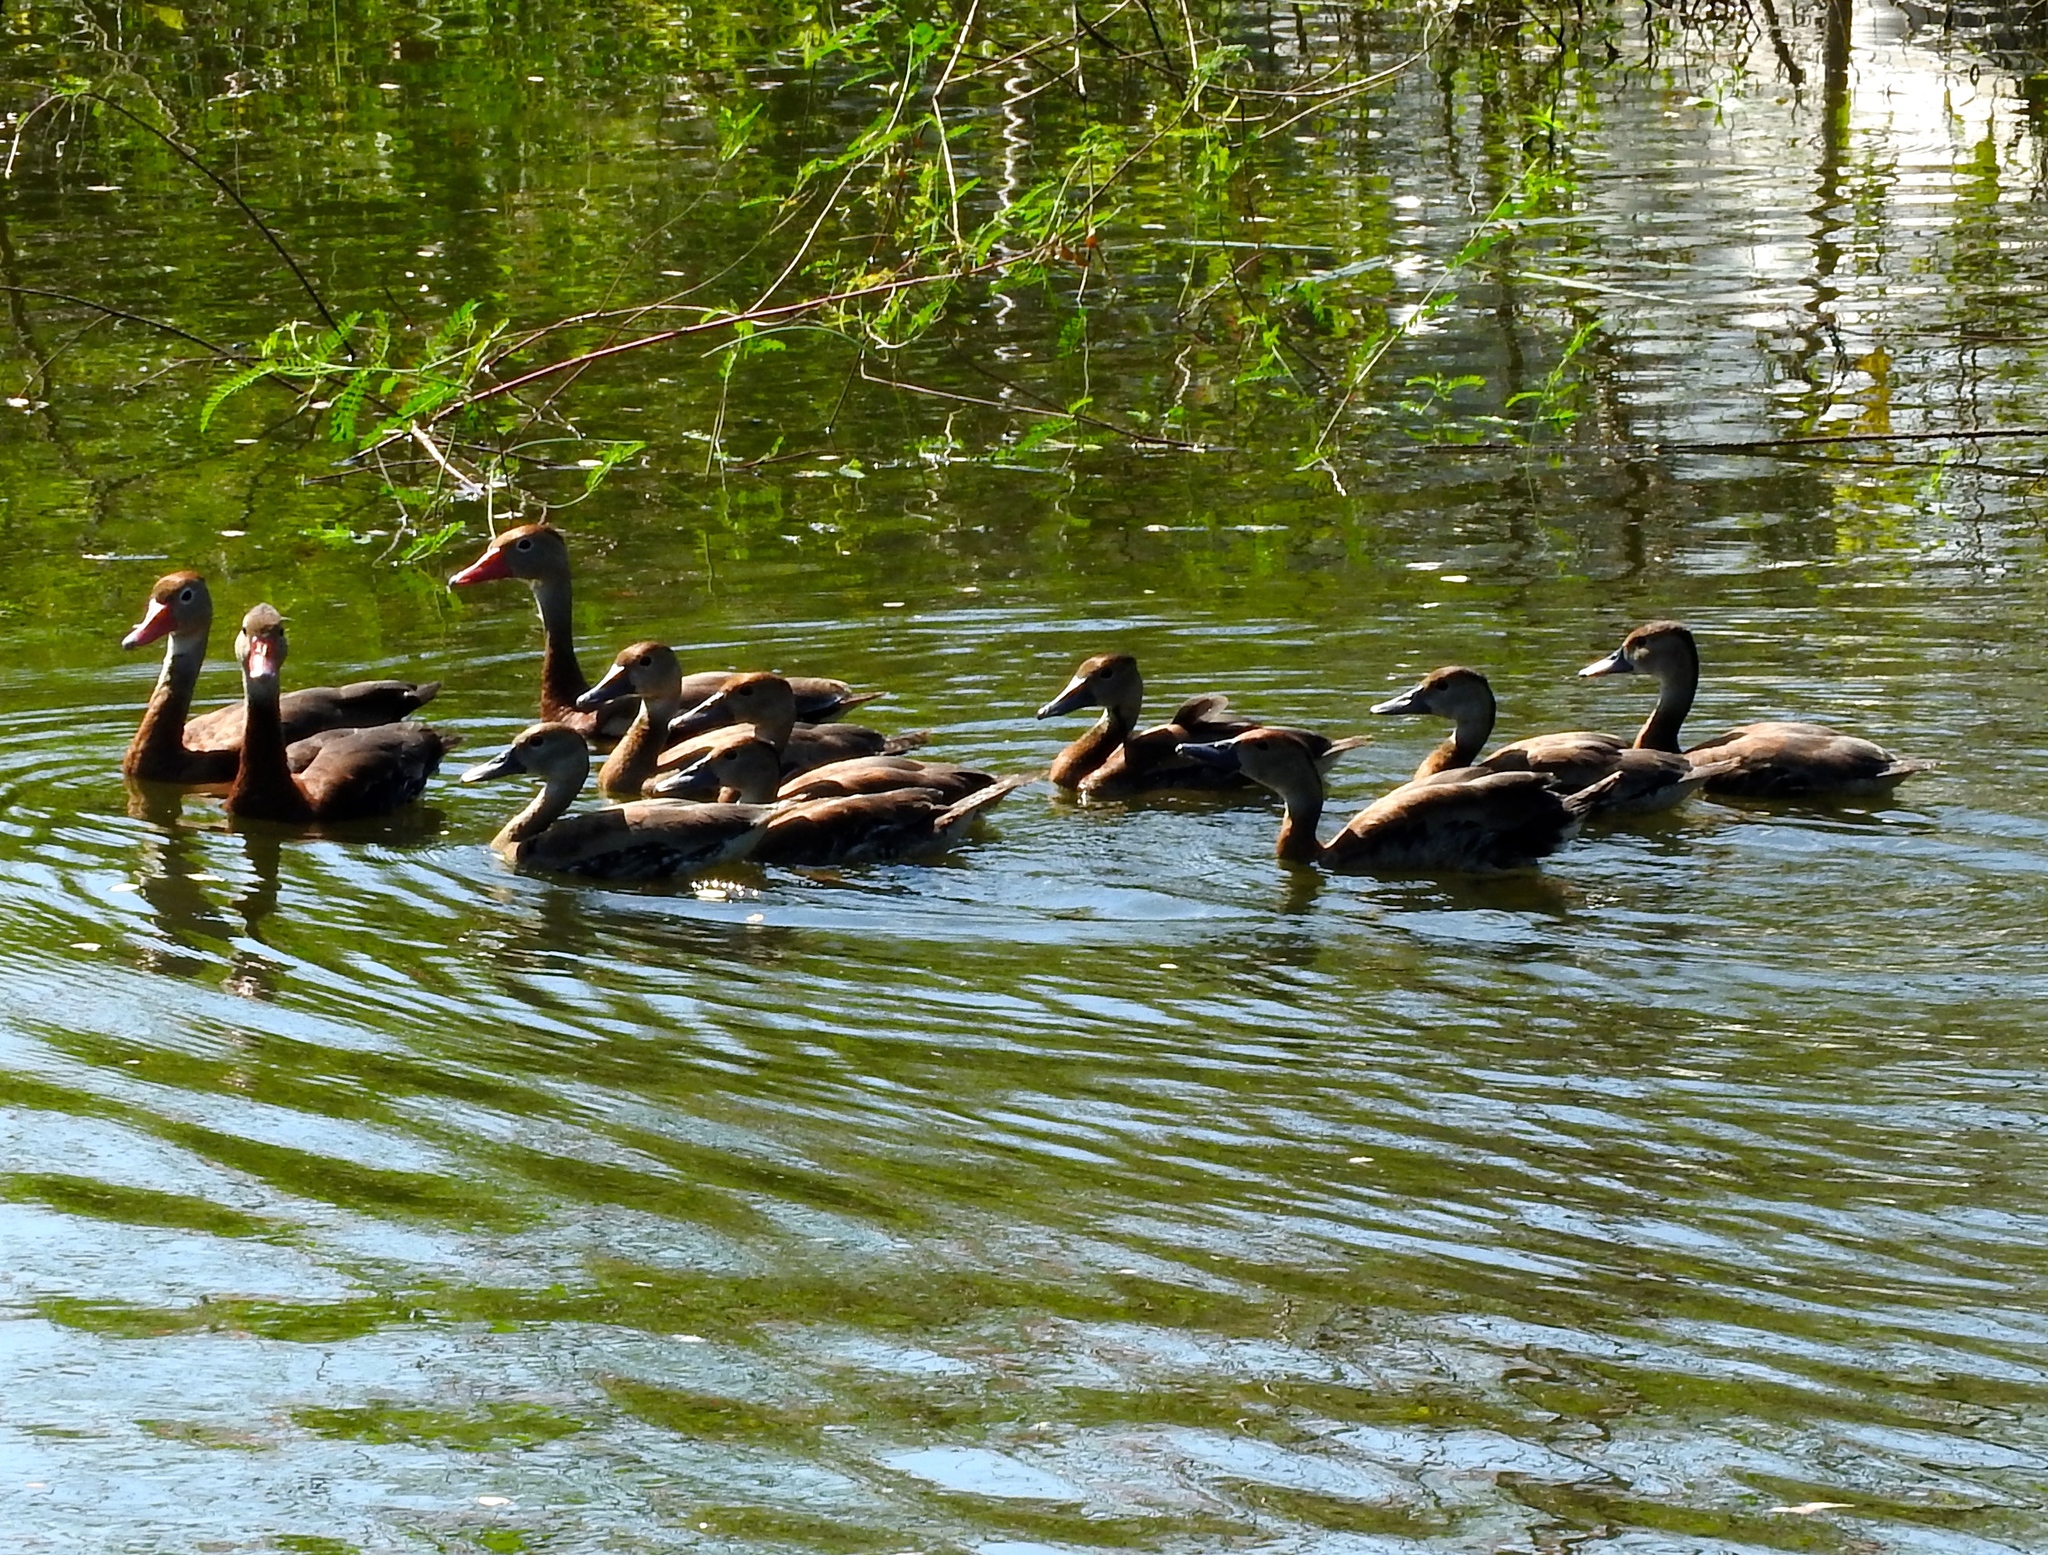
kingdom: Animalia
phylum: Chordata
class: Aves
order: Anseriformes
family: Anatidae
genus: Dendrocygna
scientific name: Dendrocygna autumnalis
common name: Black-bellied whistling duck
